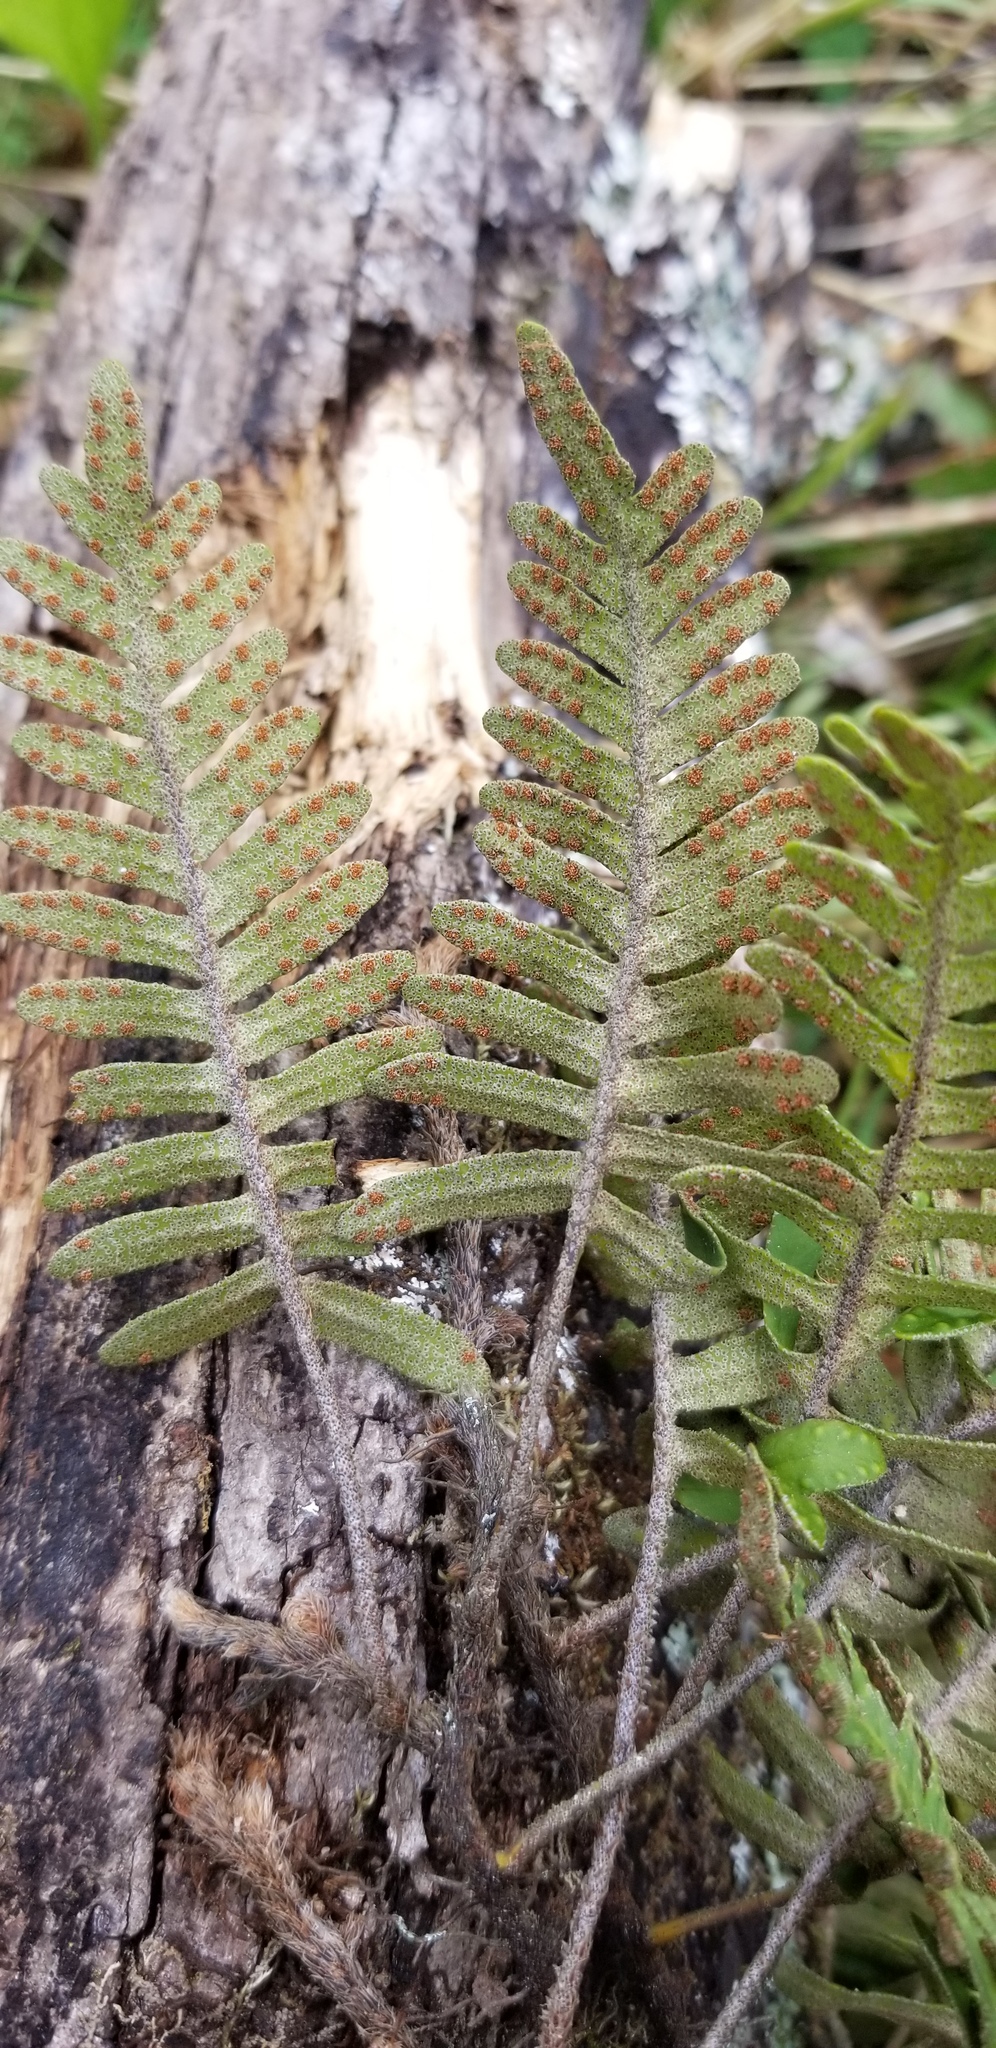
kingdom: Plantae
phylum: Tracheophyta
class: Polypodiopsida
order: Polypodiales
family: Polypodiaceae
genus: Pleopeltis
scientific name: Pleopeltis michauxiana
